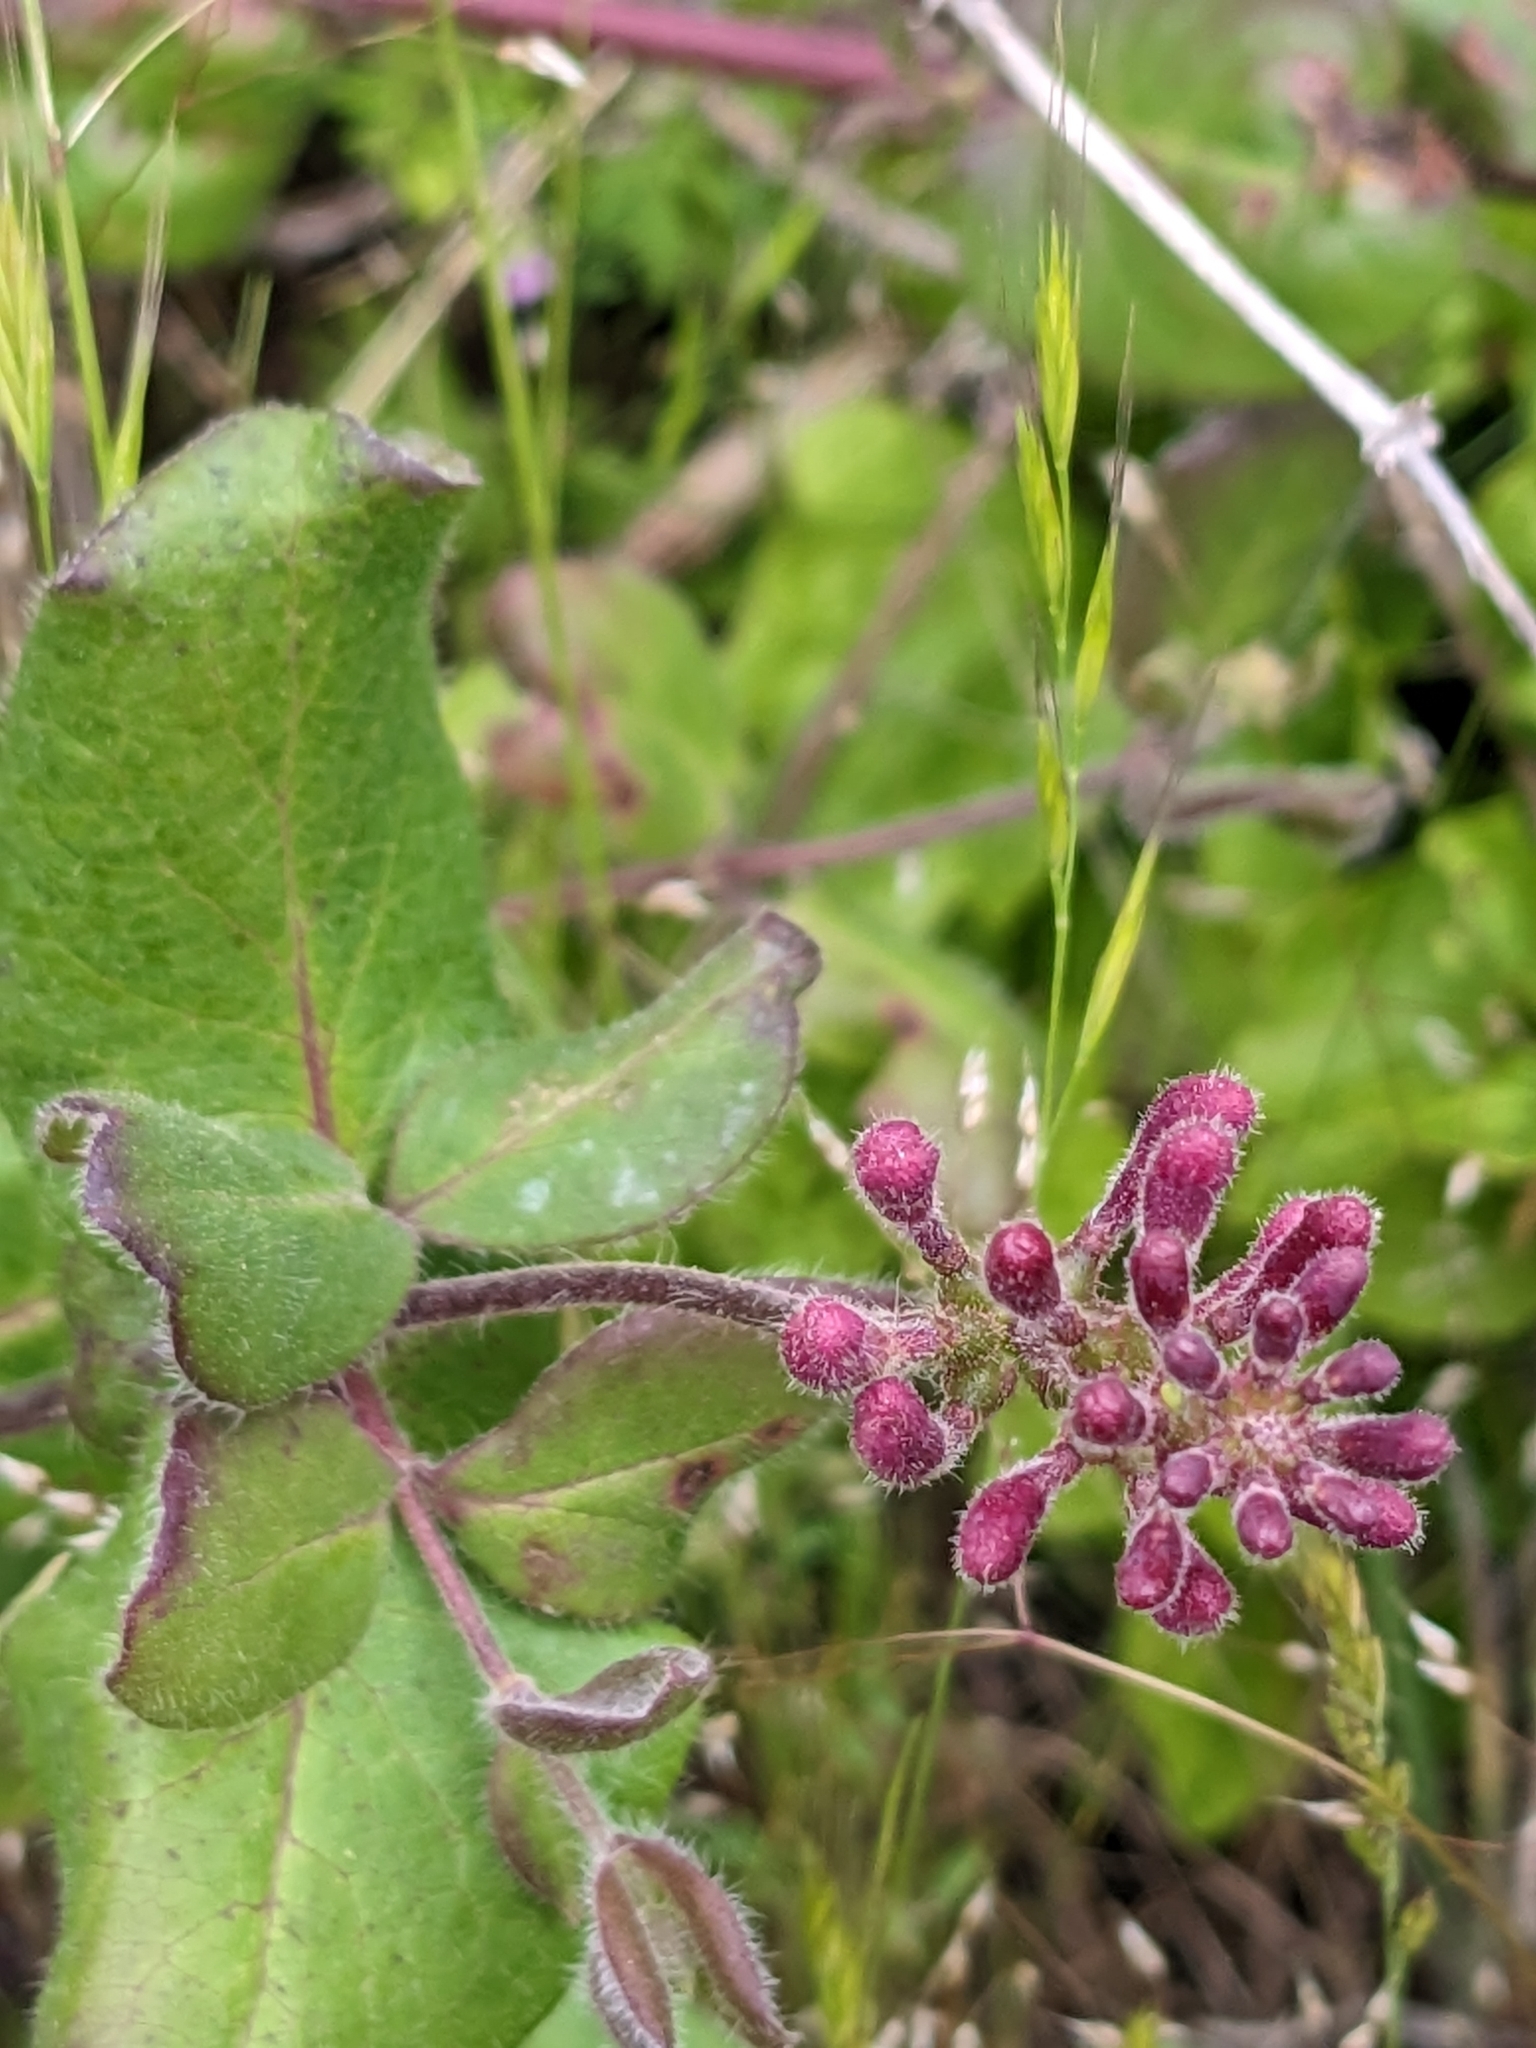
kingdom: Plantae
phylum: Tracheophyta
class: Magnoliopsida
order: Dipsacales
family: Caprifoliaceae
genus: Lonicera
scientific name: Lonicera hispidula
